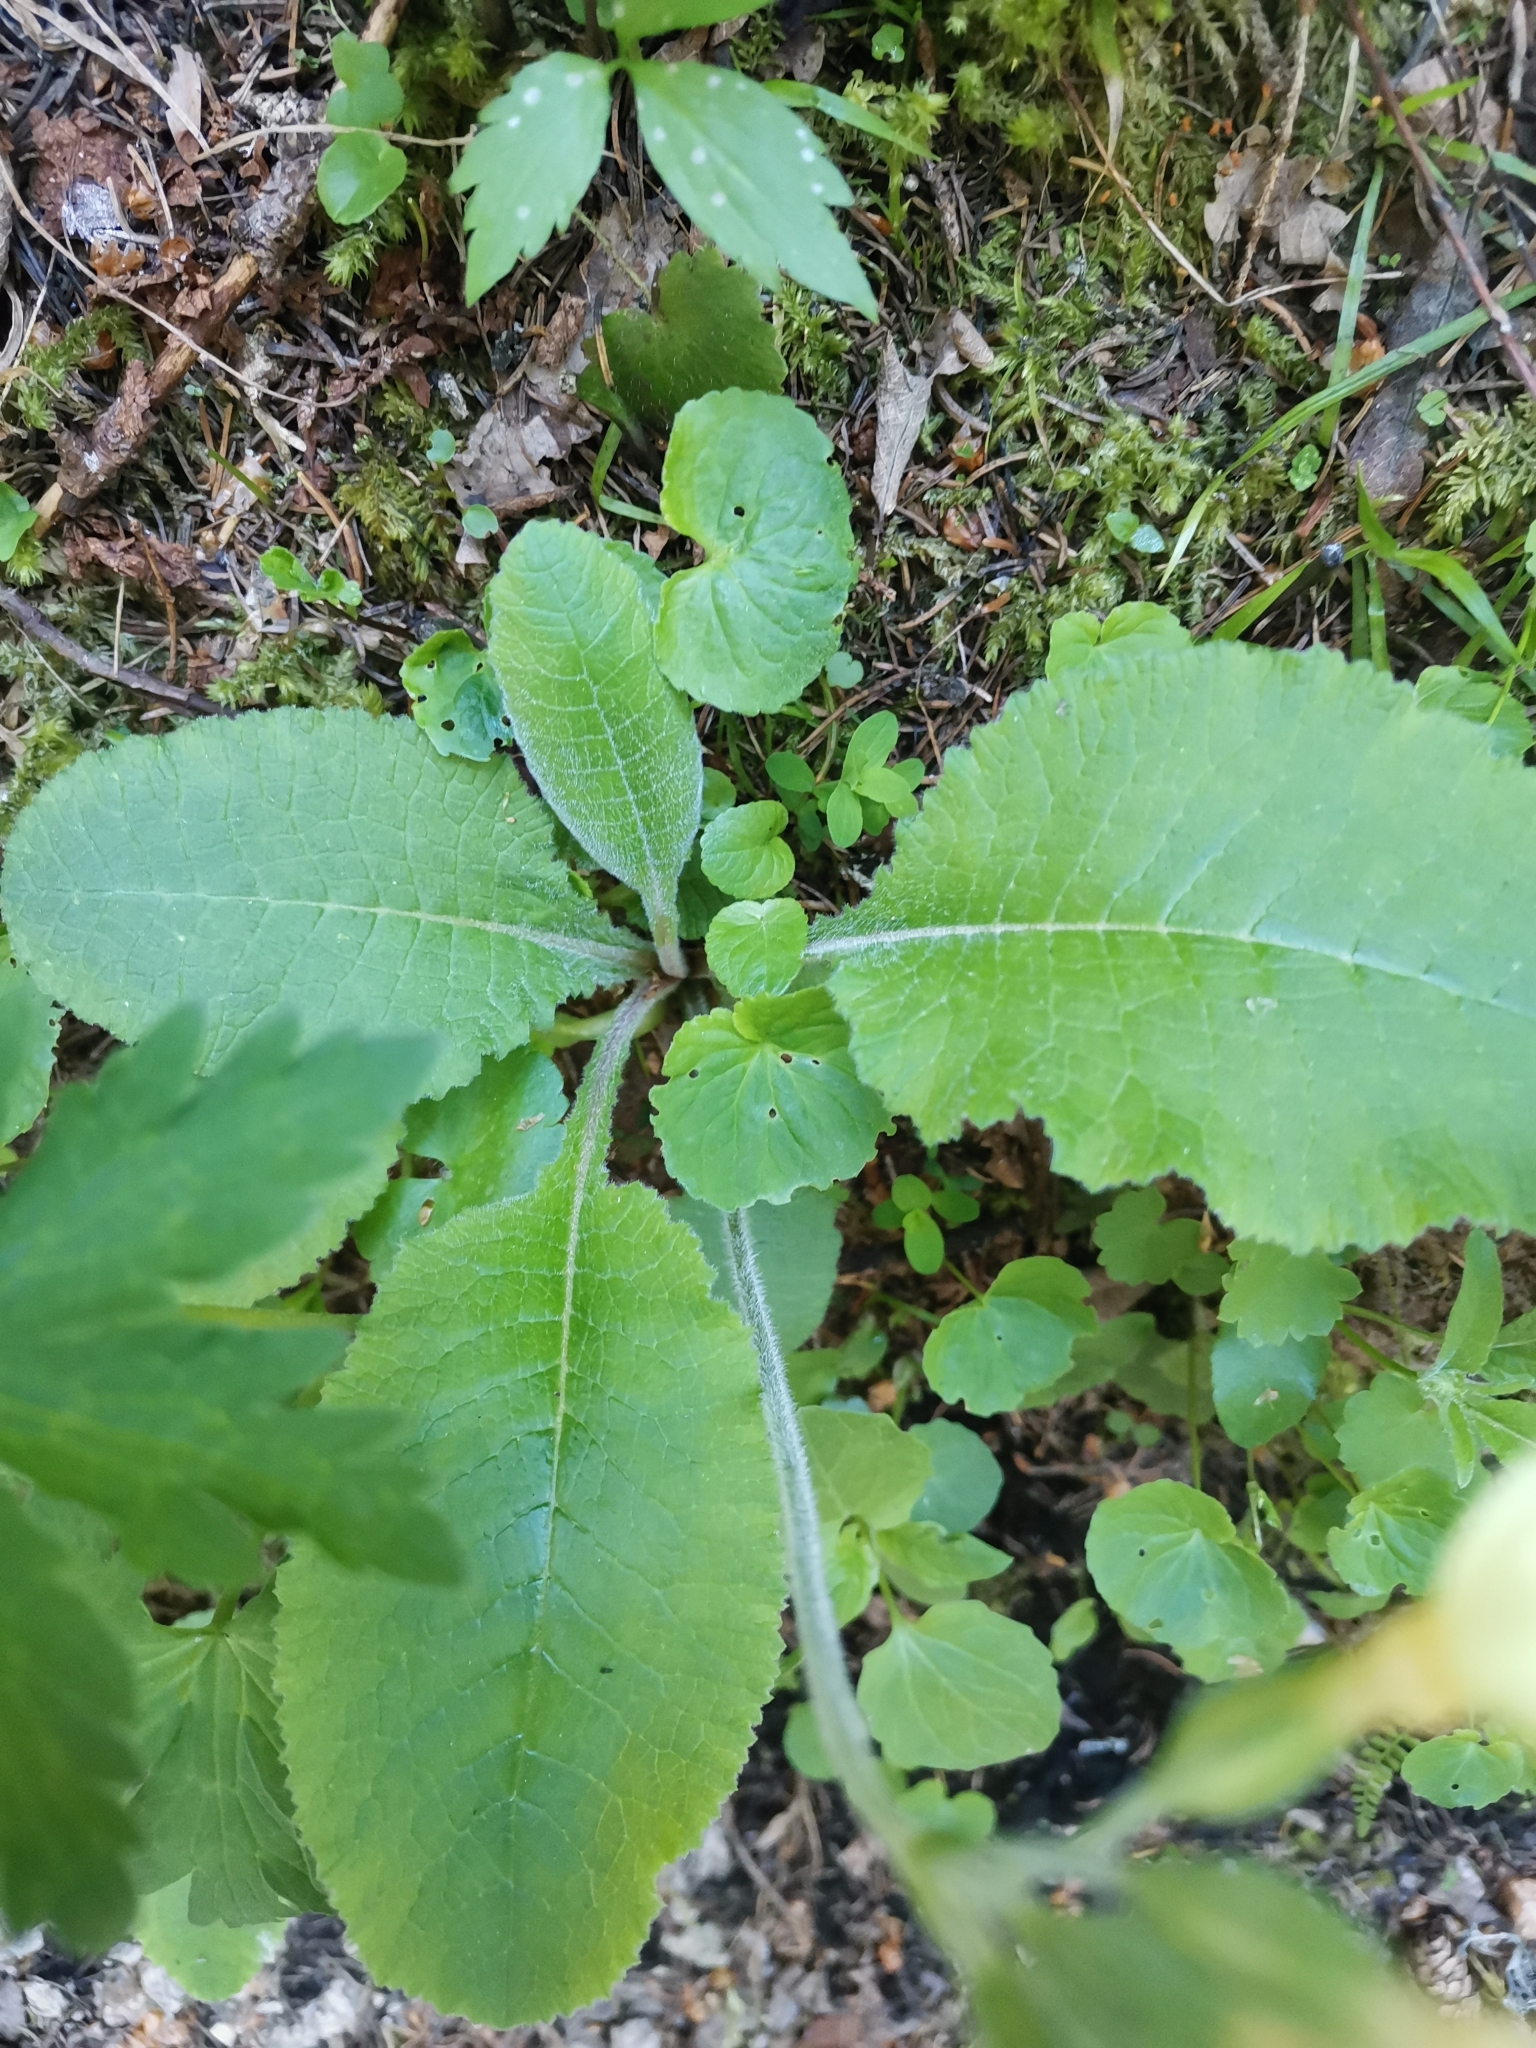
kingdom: Plantae
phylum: Tracheophyta
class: Magnoliopsida
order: Ericales
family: Primulaceae
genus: Primula
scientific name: Primula elatior
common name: Oxlip
